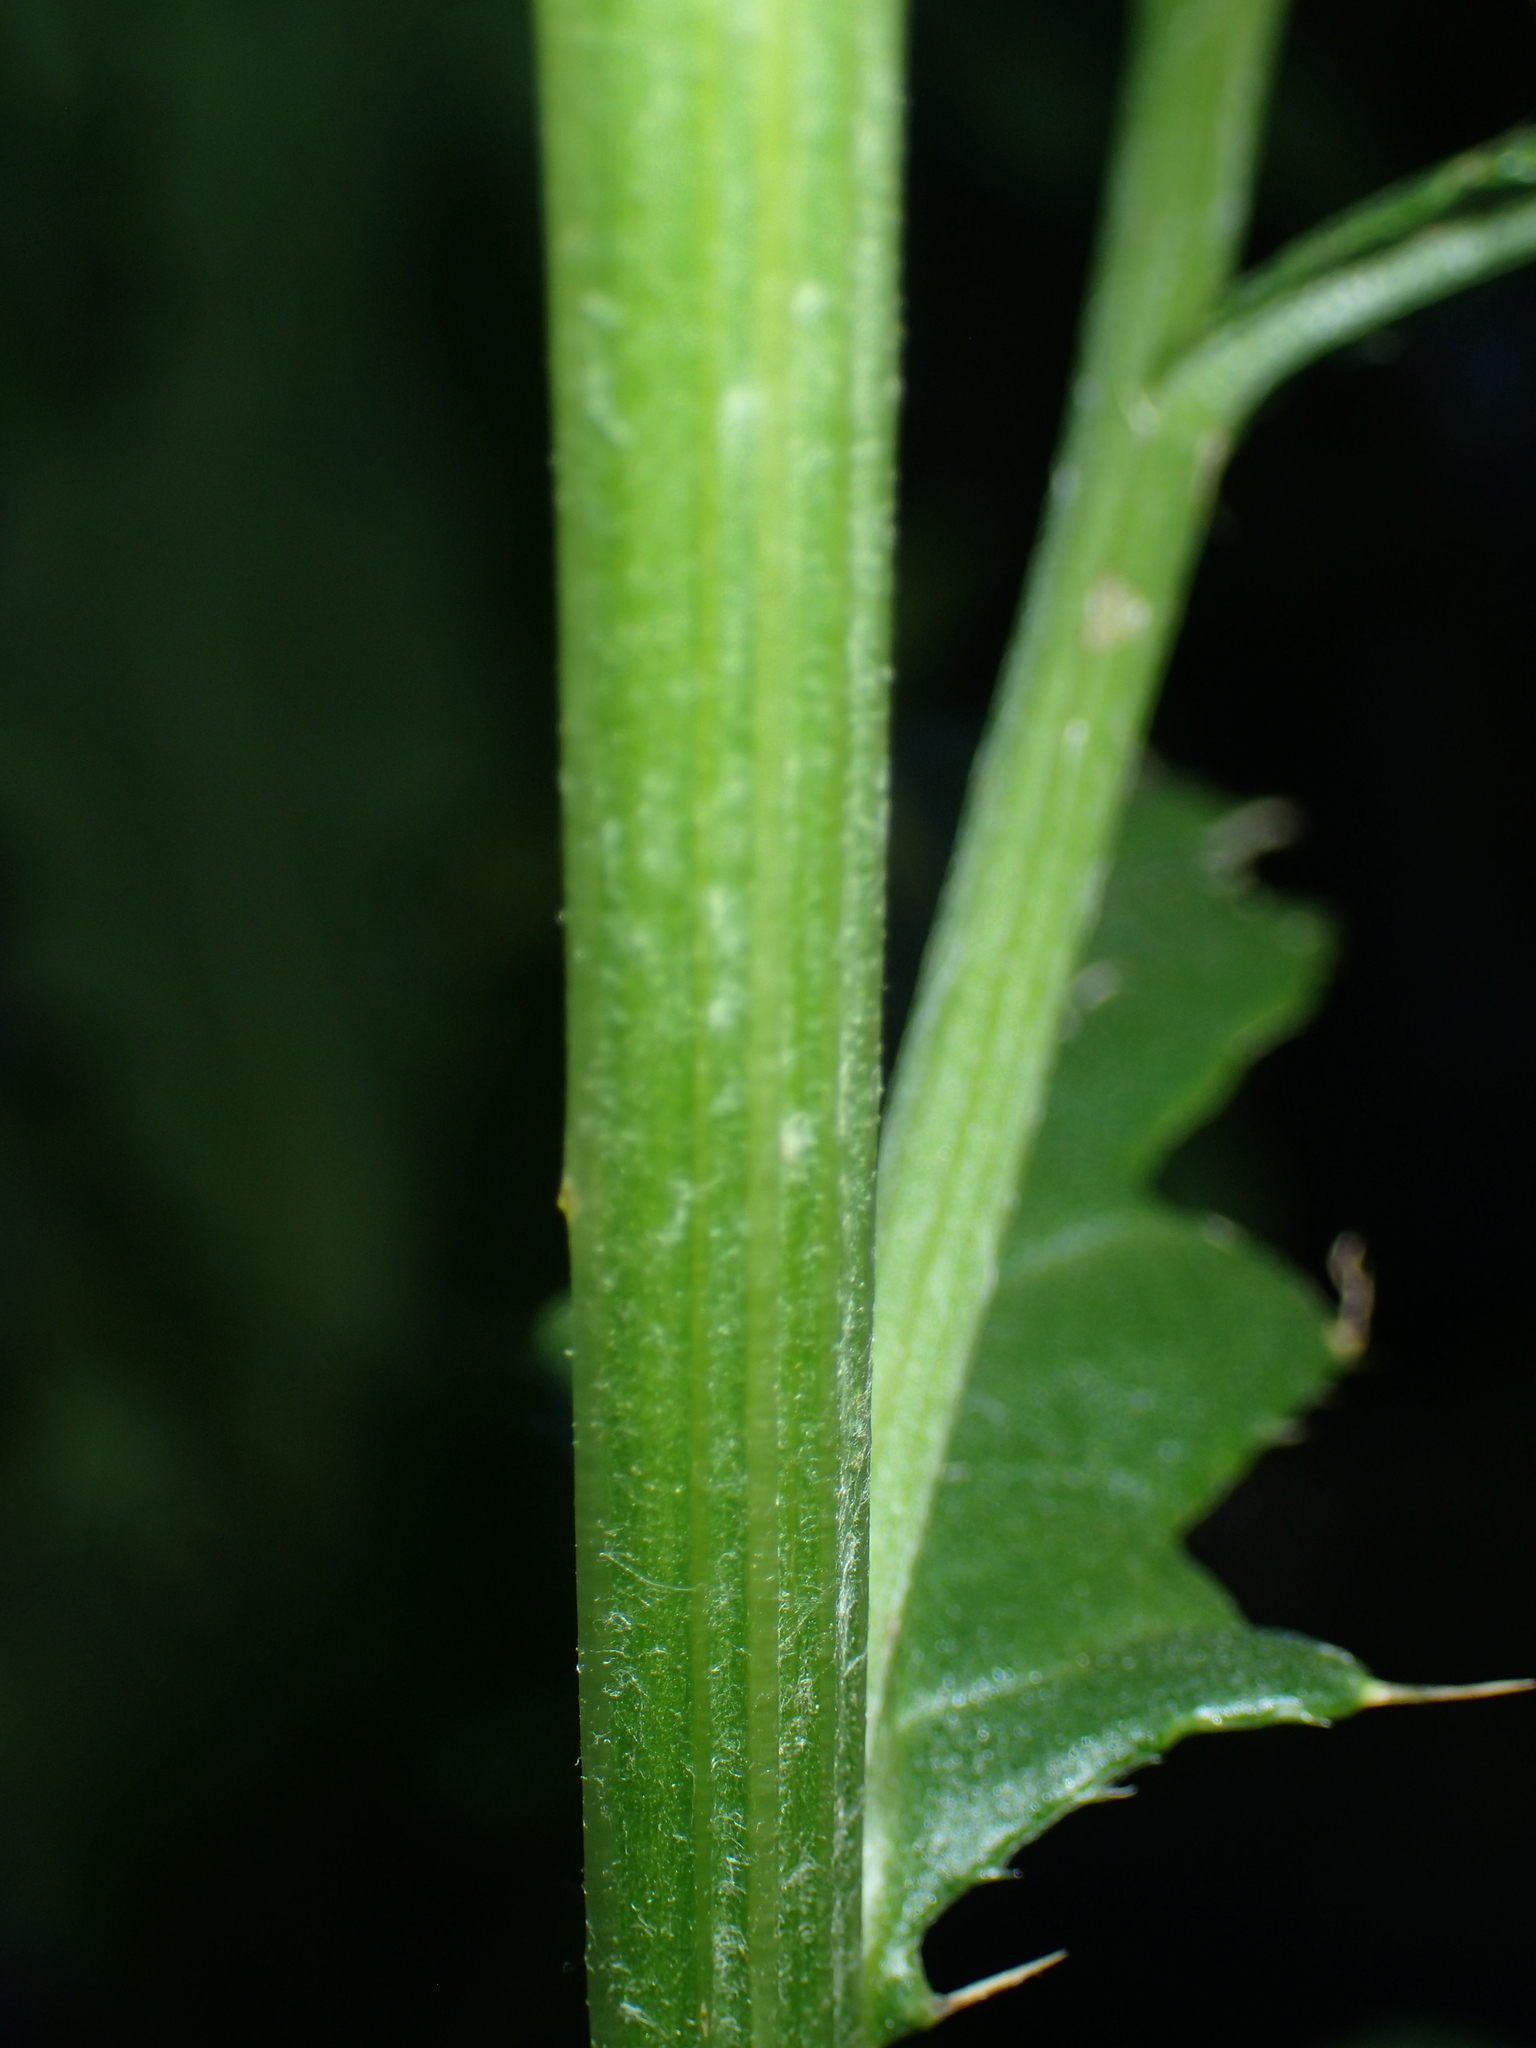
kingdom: Plantae
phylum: Tracheophyta
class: Magnoliopsida
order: Asterales
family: Asteraceae
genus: Cirsium
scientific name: Cirsium arvense
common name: Creeping thistle
